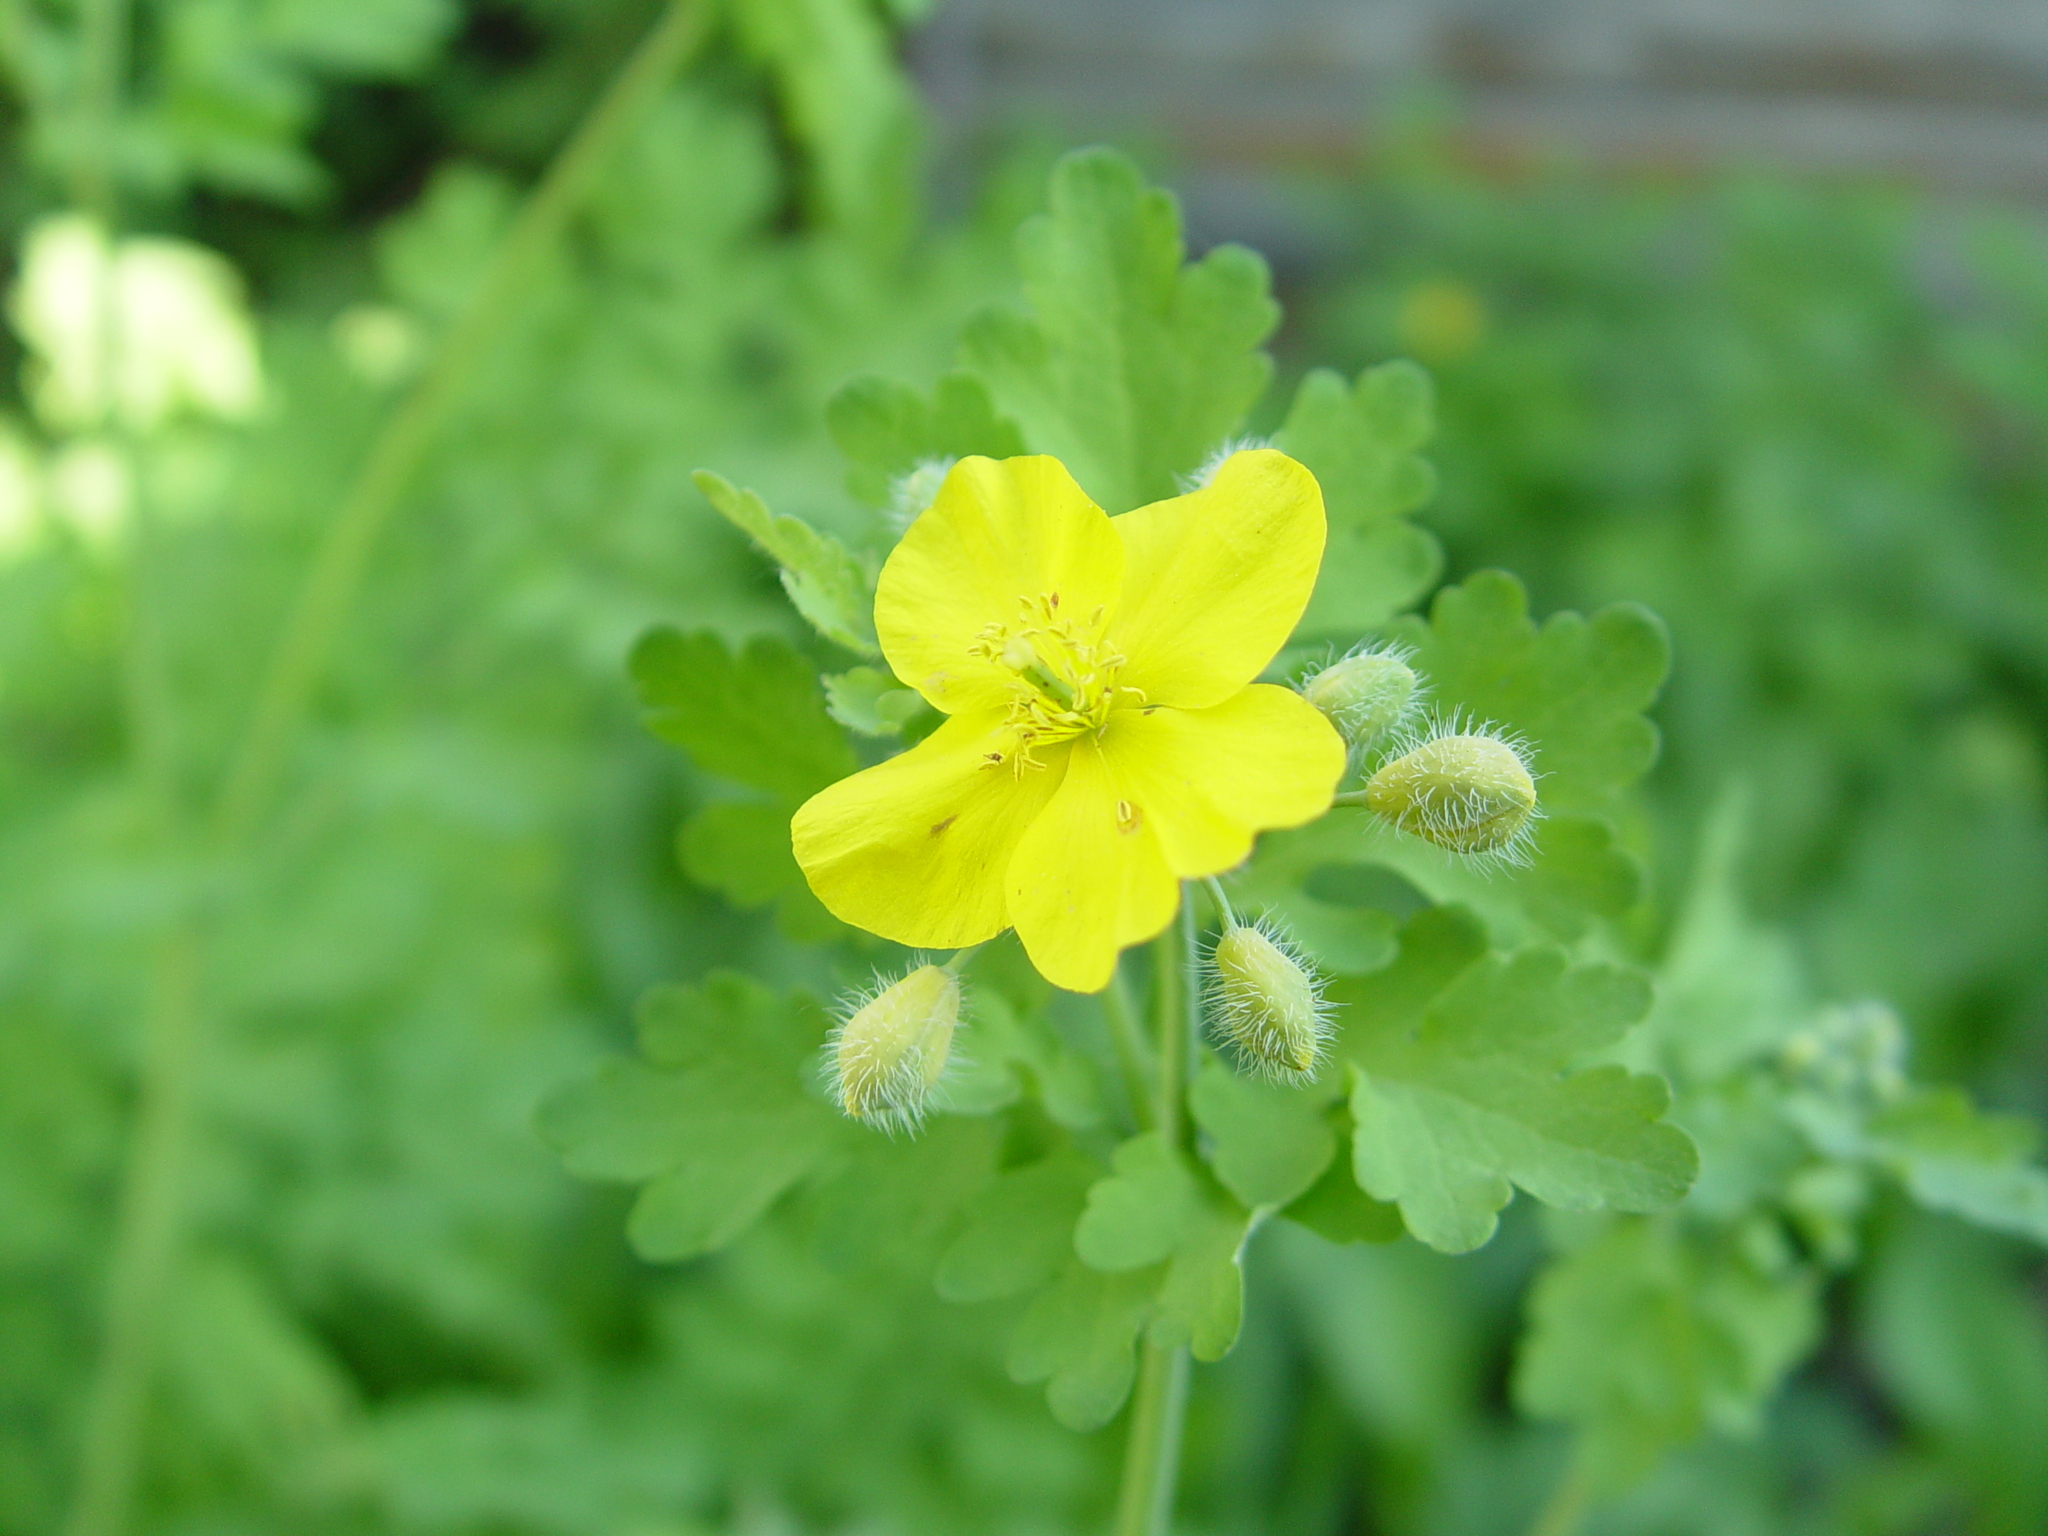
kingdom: Plantae
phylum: Tracheophyta
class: Magnoliopsida
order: Ranunculales
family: Papaveraceae
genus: Chelidonium
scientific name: Chelidonium majus
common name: Greater celandine
